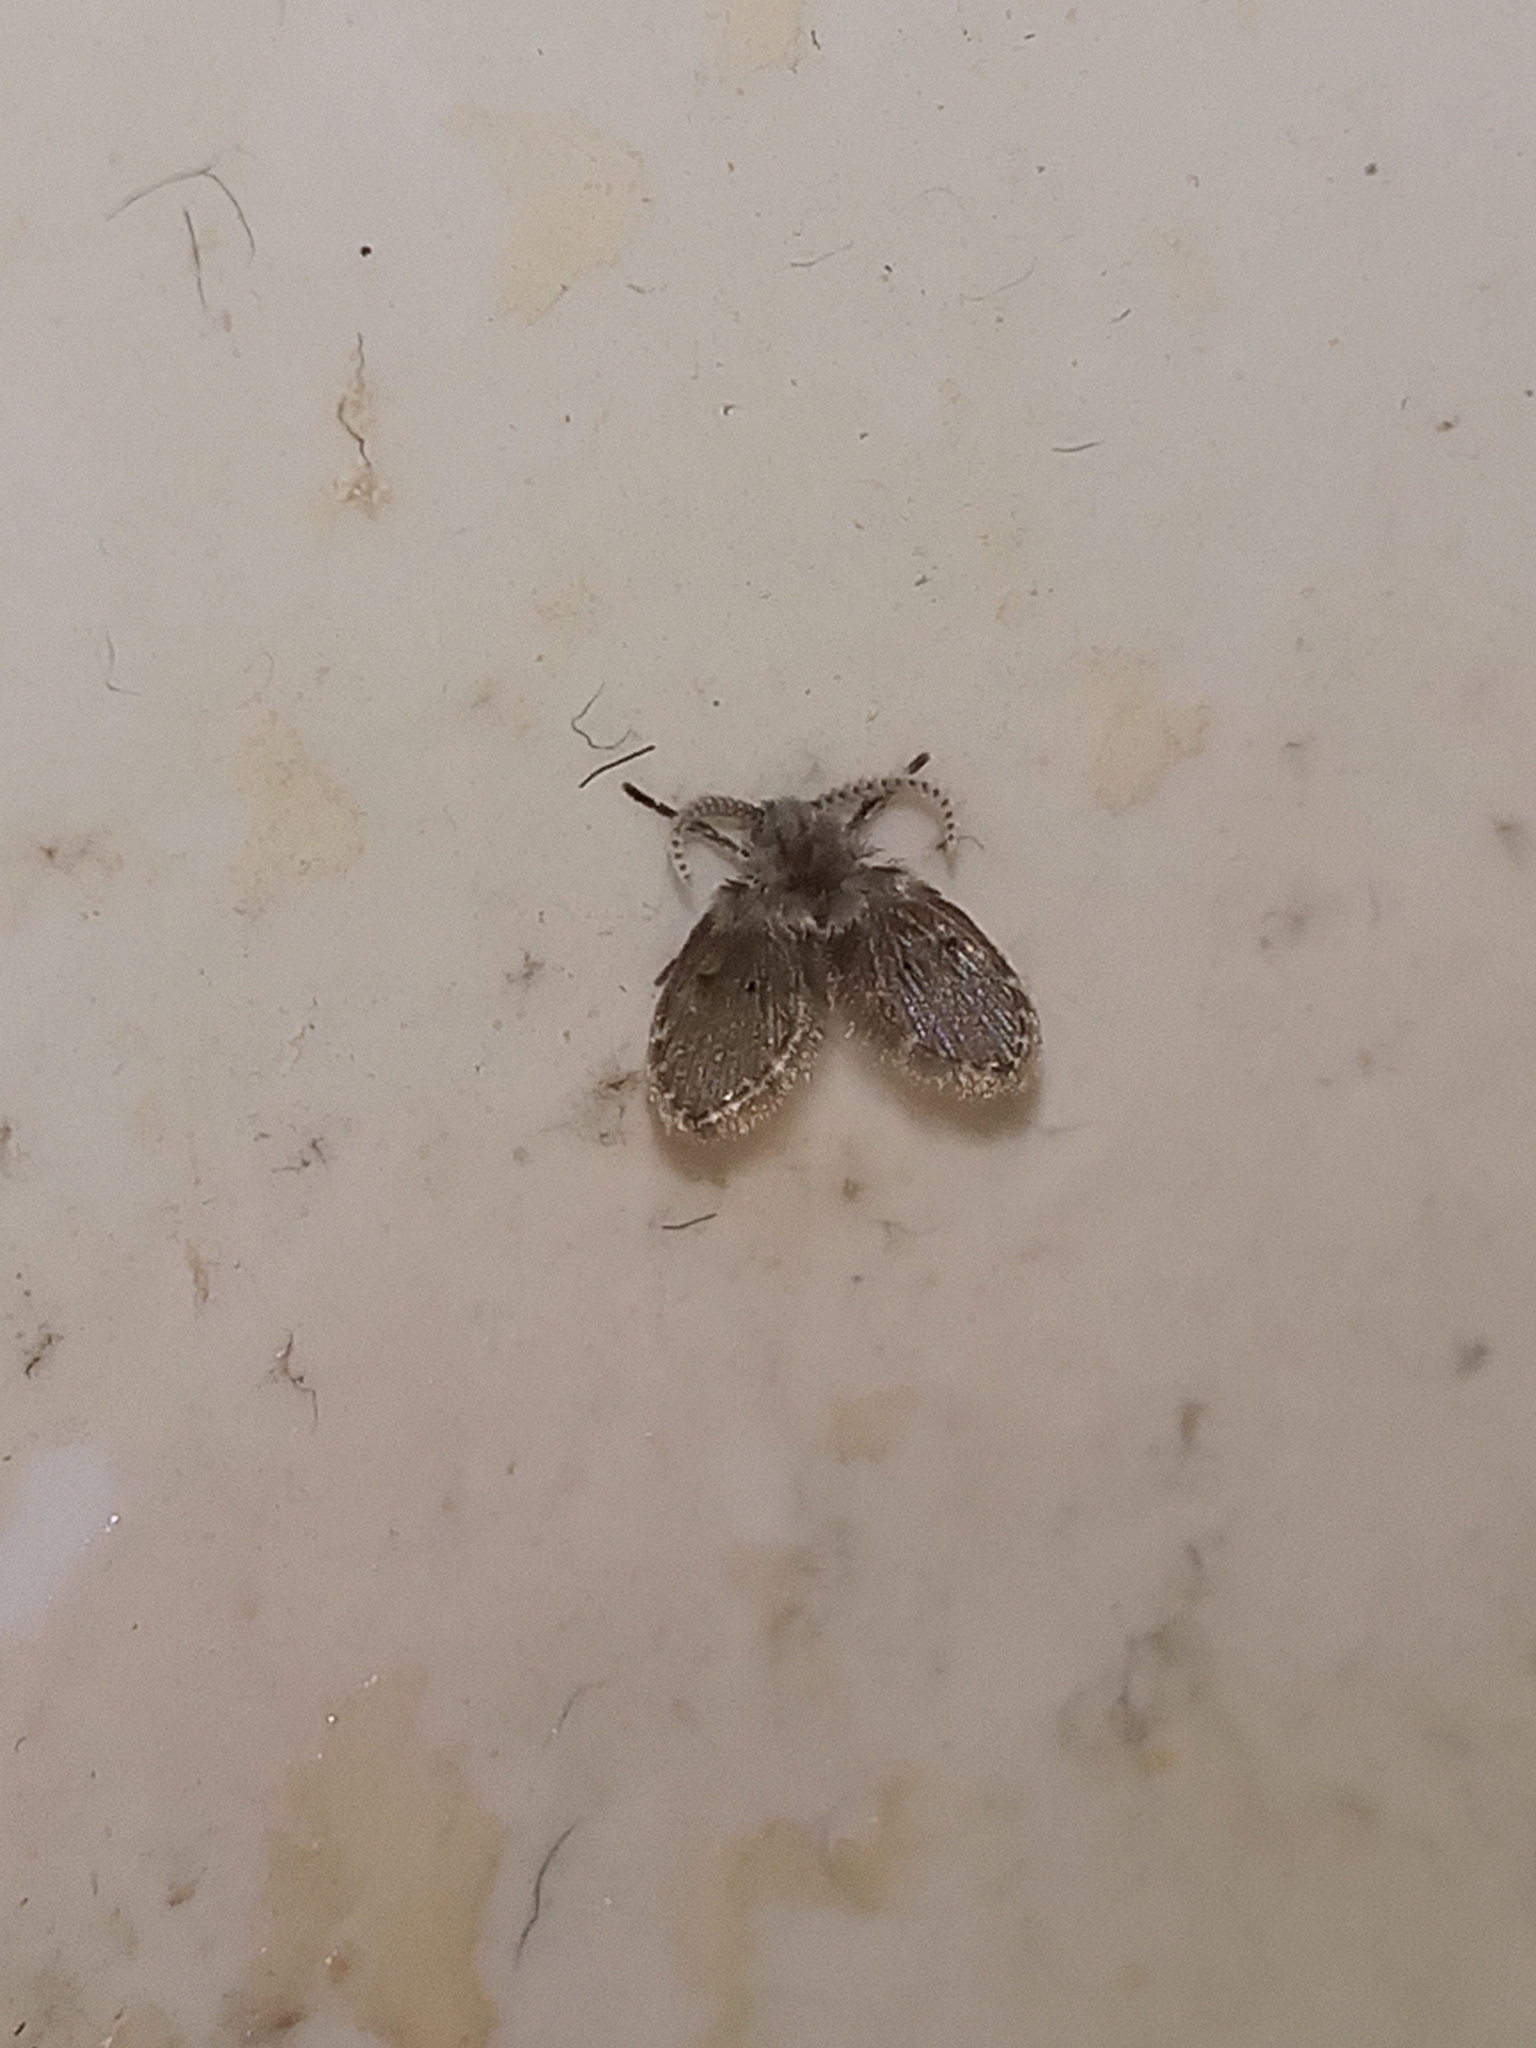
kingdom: Animalia
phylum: Arthropoda
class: Insecta
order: Diptera
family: Psychodidae
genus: Clogmia
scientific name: Clogmia albipunctatus
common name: White-spotted moth fly
